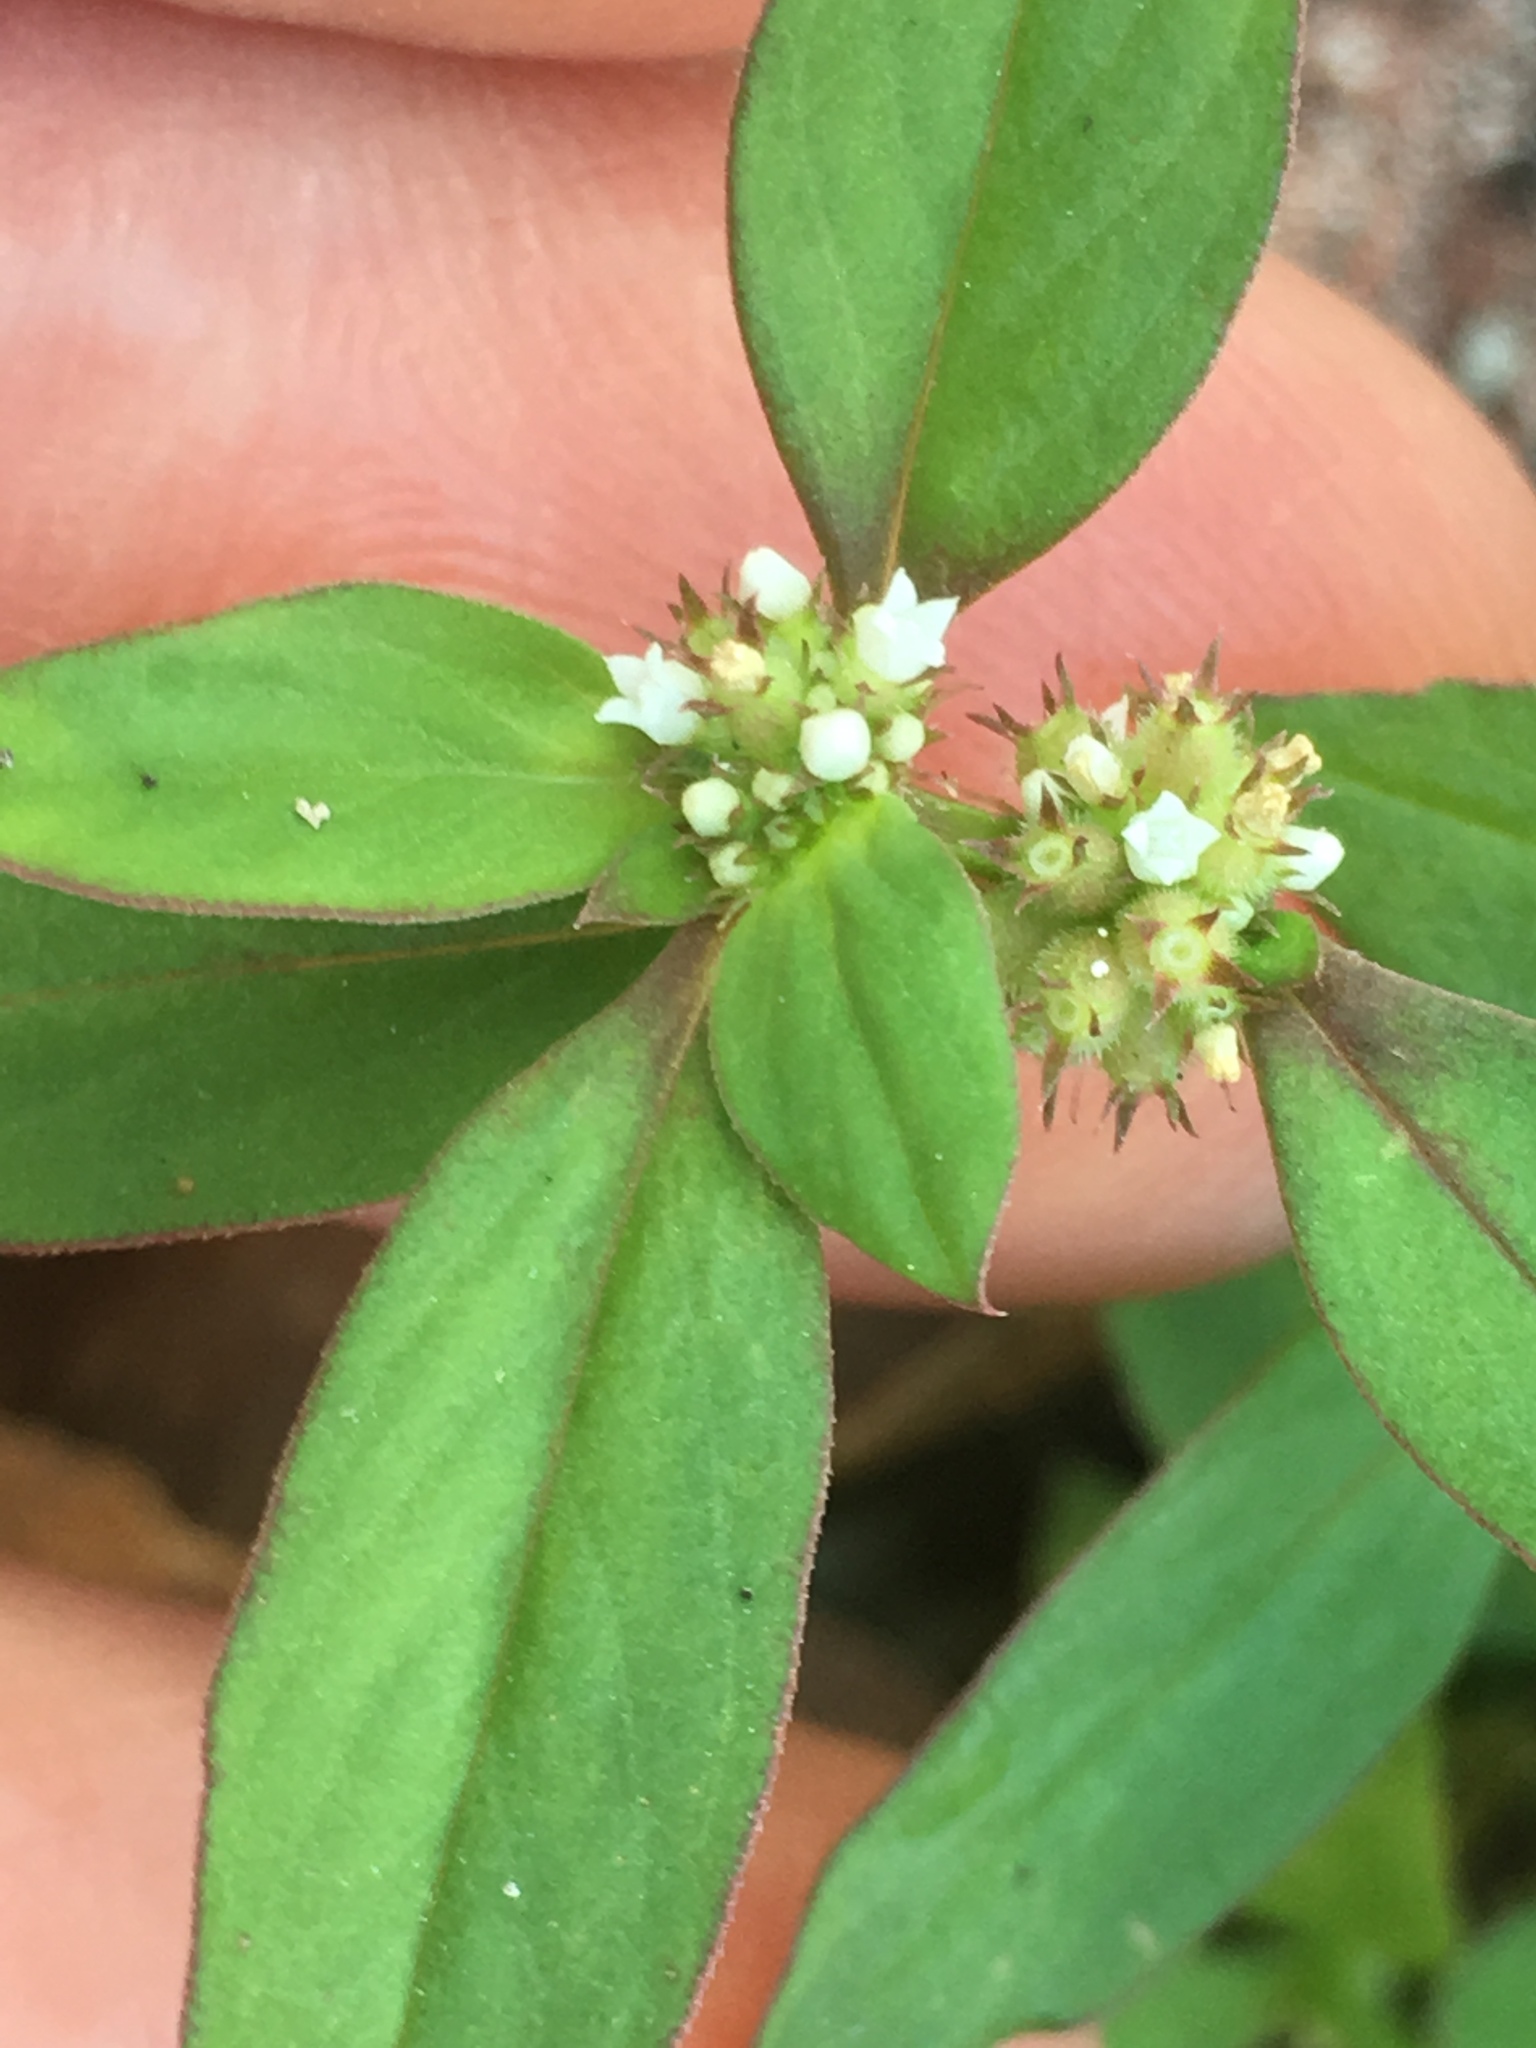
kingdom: Plantae
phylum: Tracheophyta
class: Magnoliopsida
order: Gentianales
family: Rubiaceae
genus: Spermacoce
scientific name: Spermacoce latifolia
